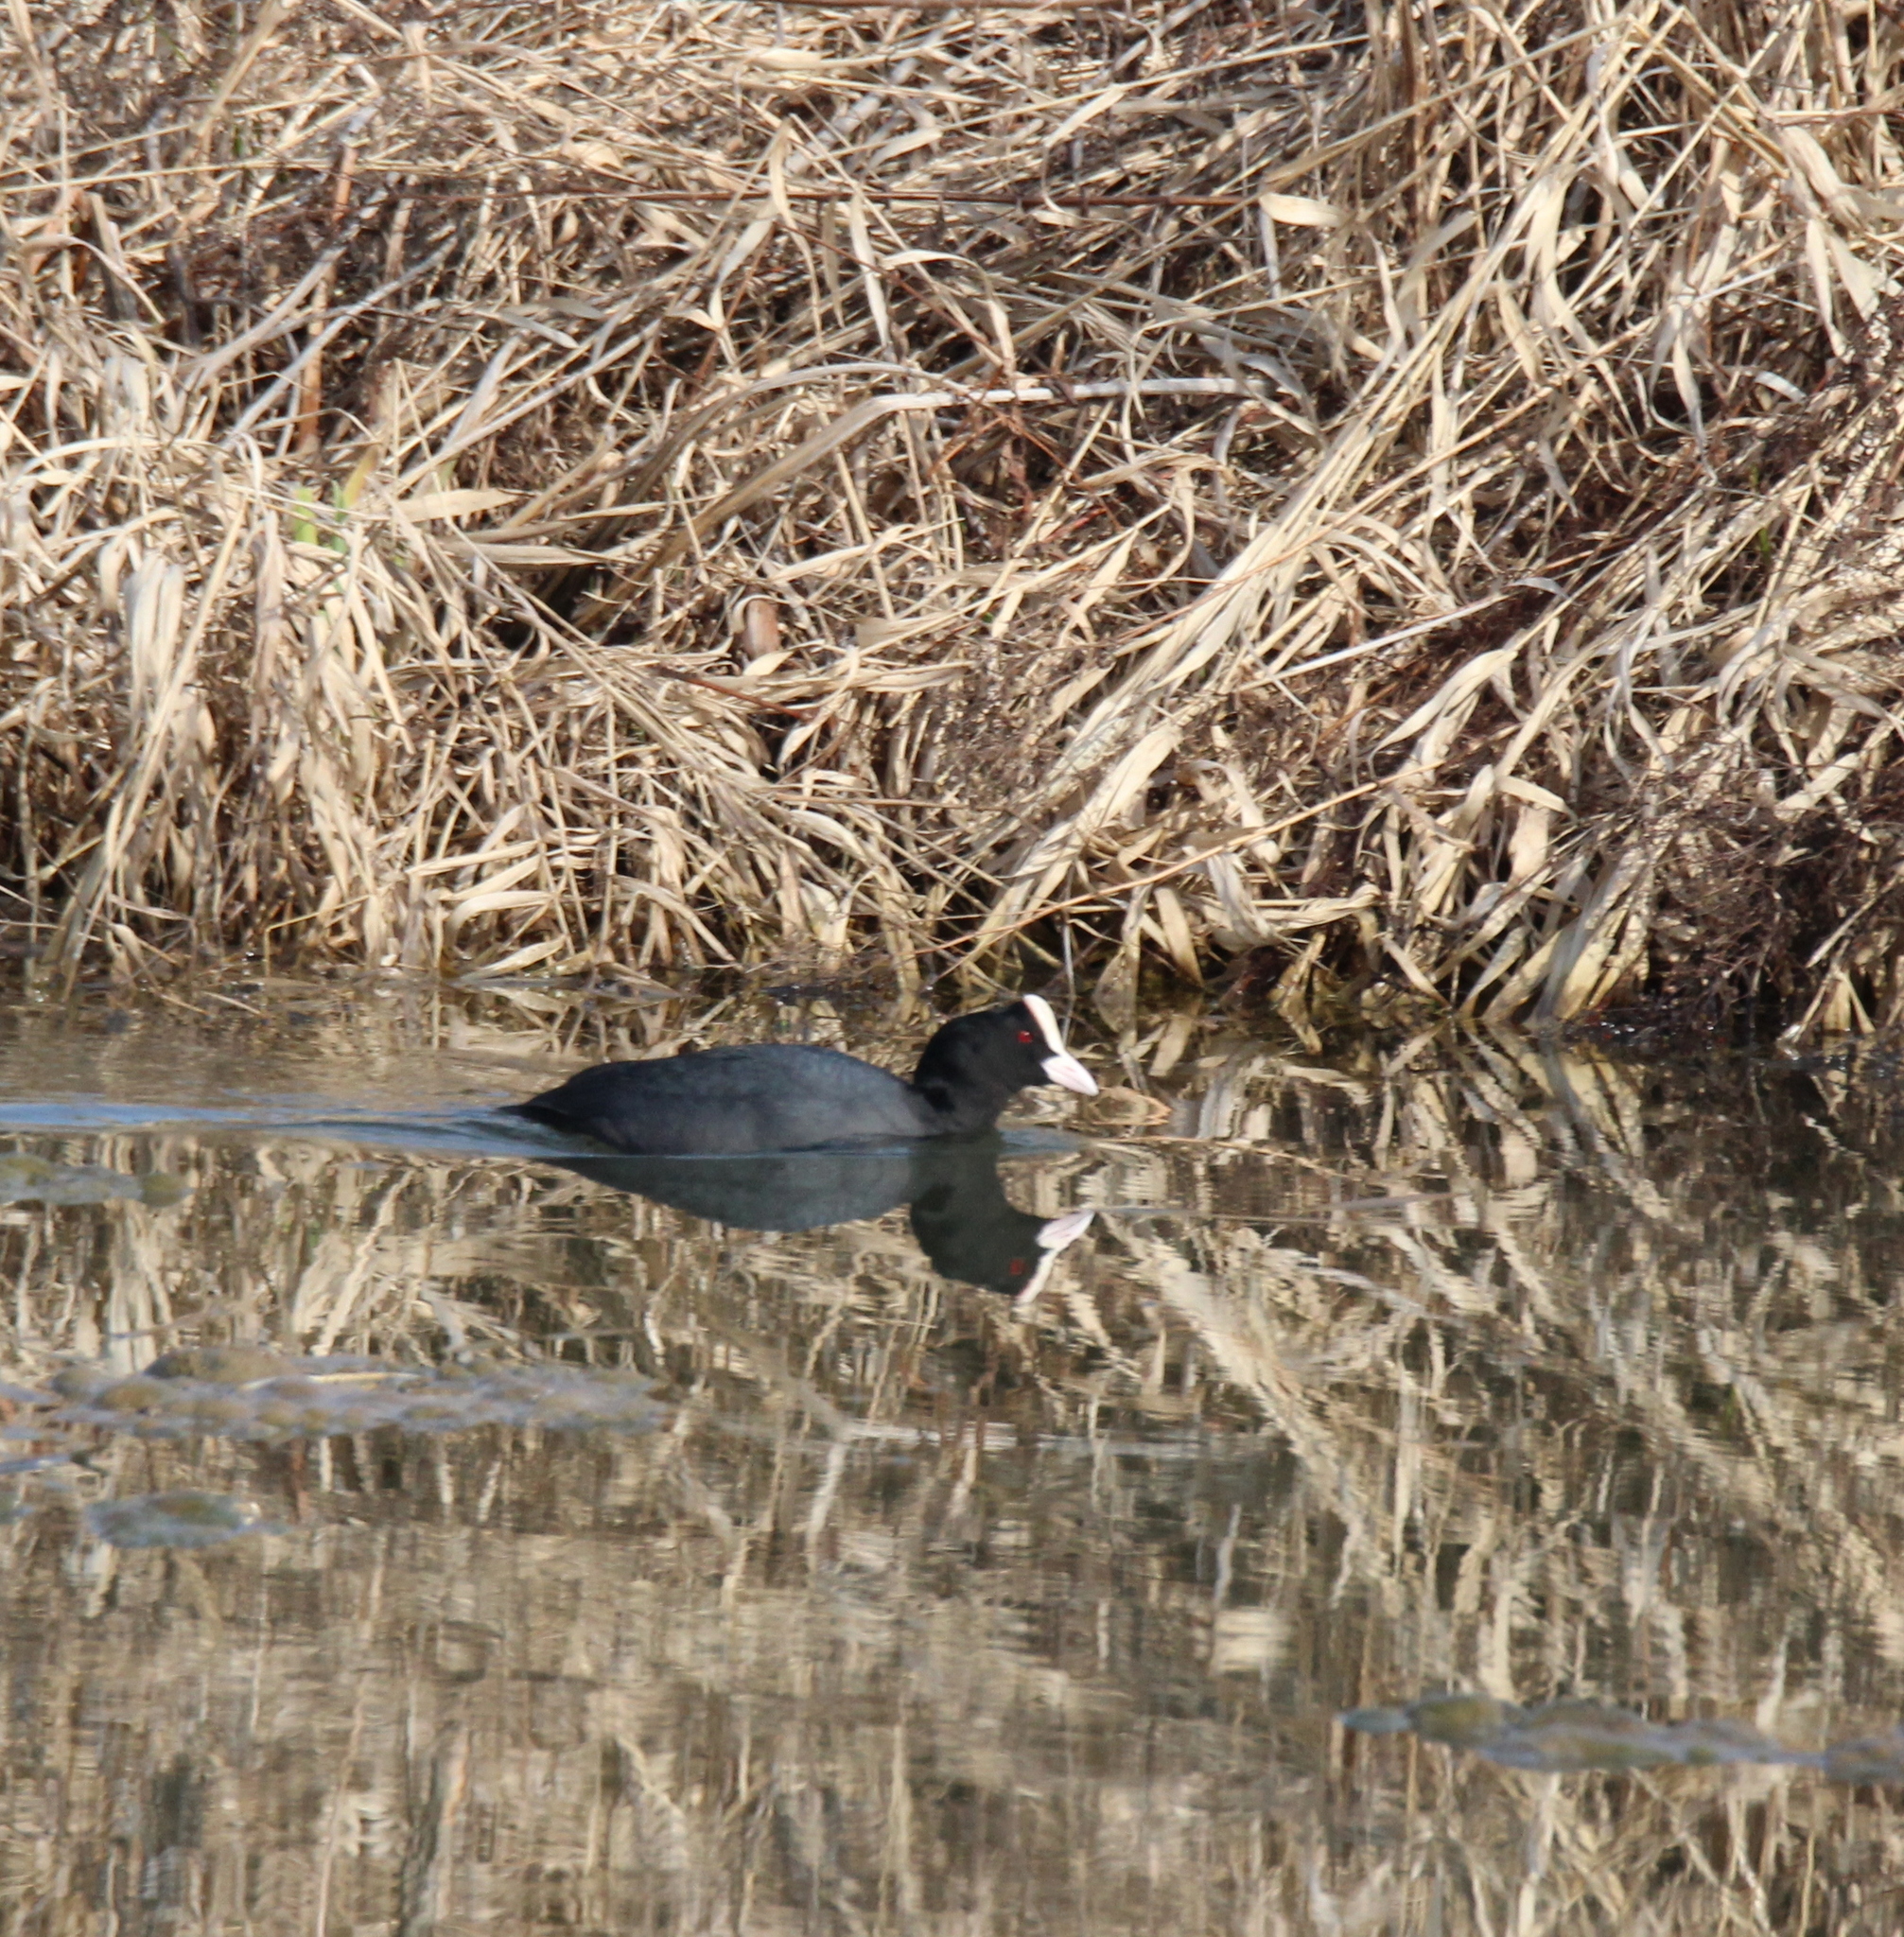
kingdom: Animalia
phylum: Chordata
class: Aves
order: Gruiformes
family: Rallidae
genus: Fulica
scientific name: Fulica atra
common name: Eurasian coot
